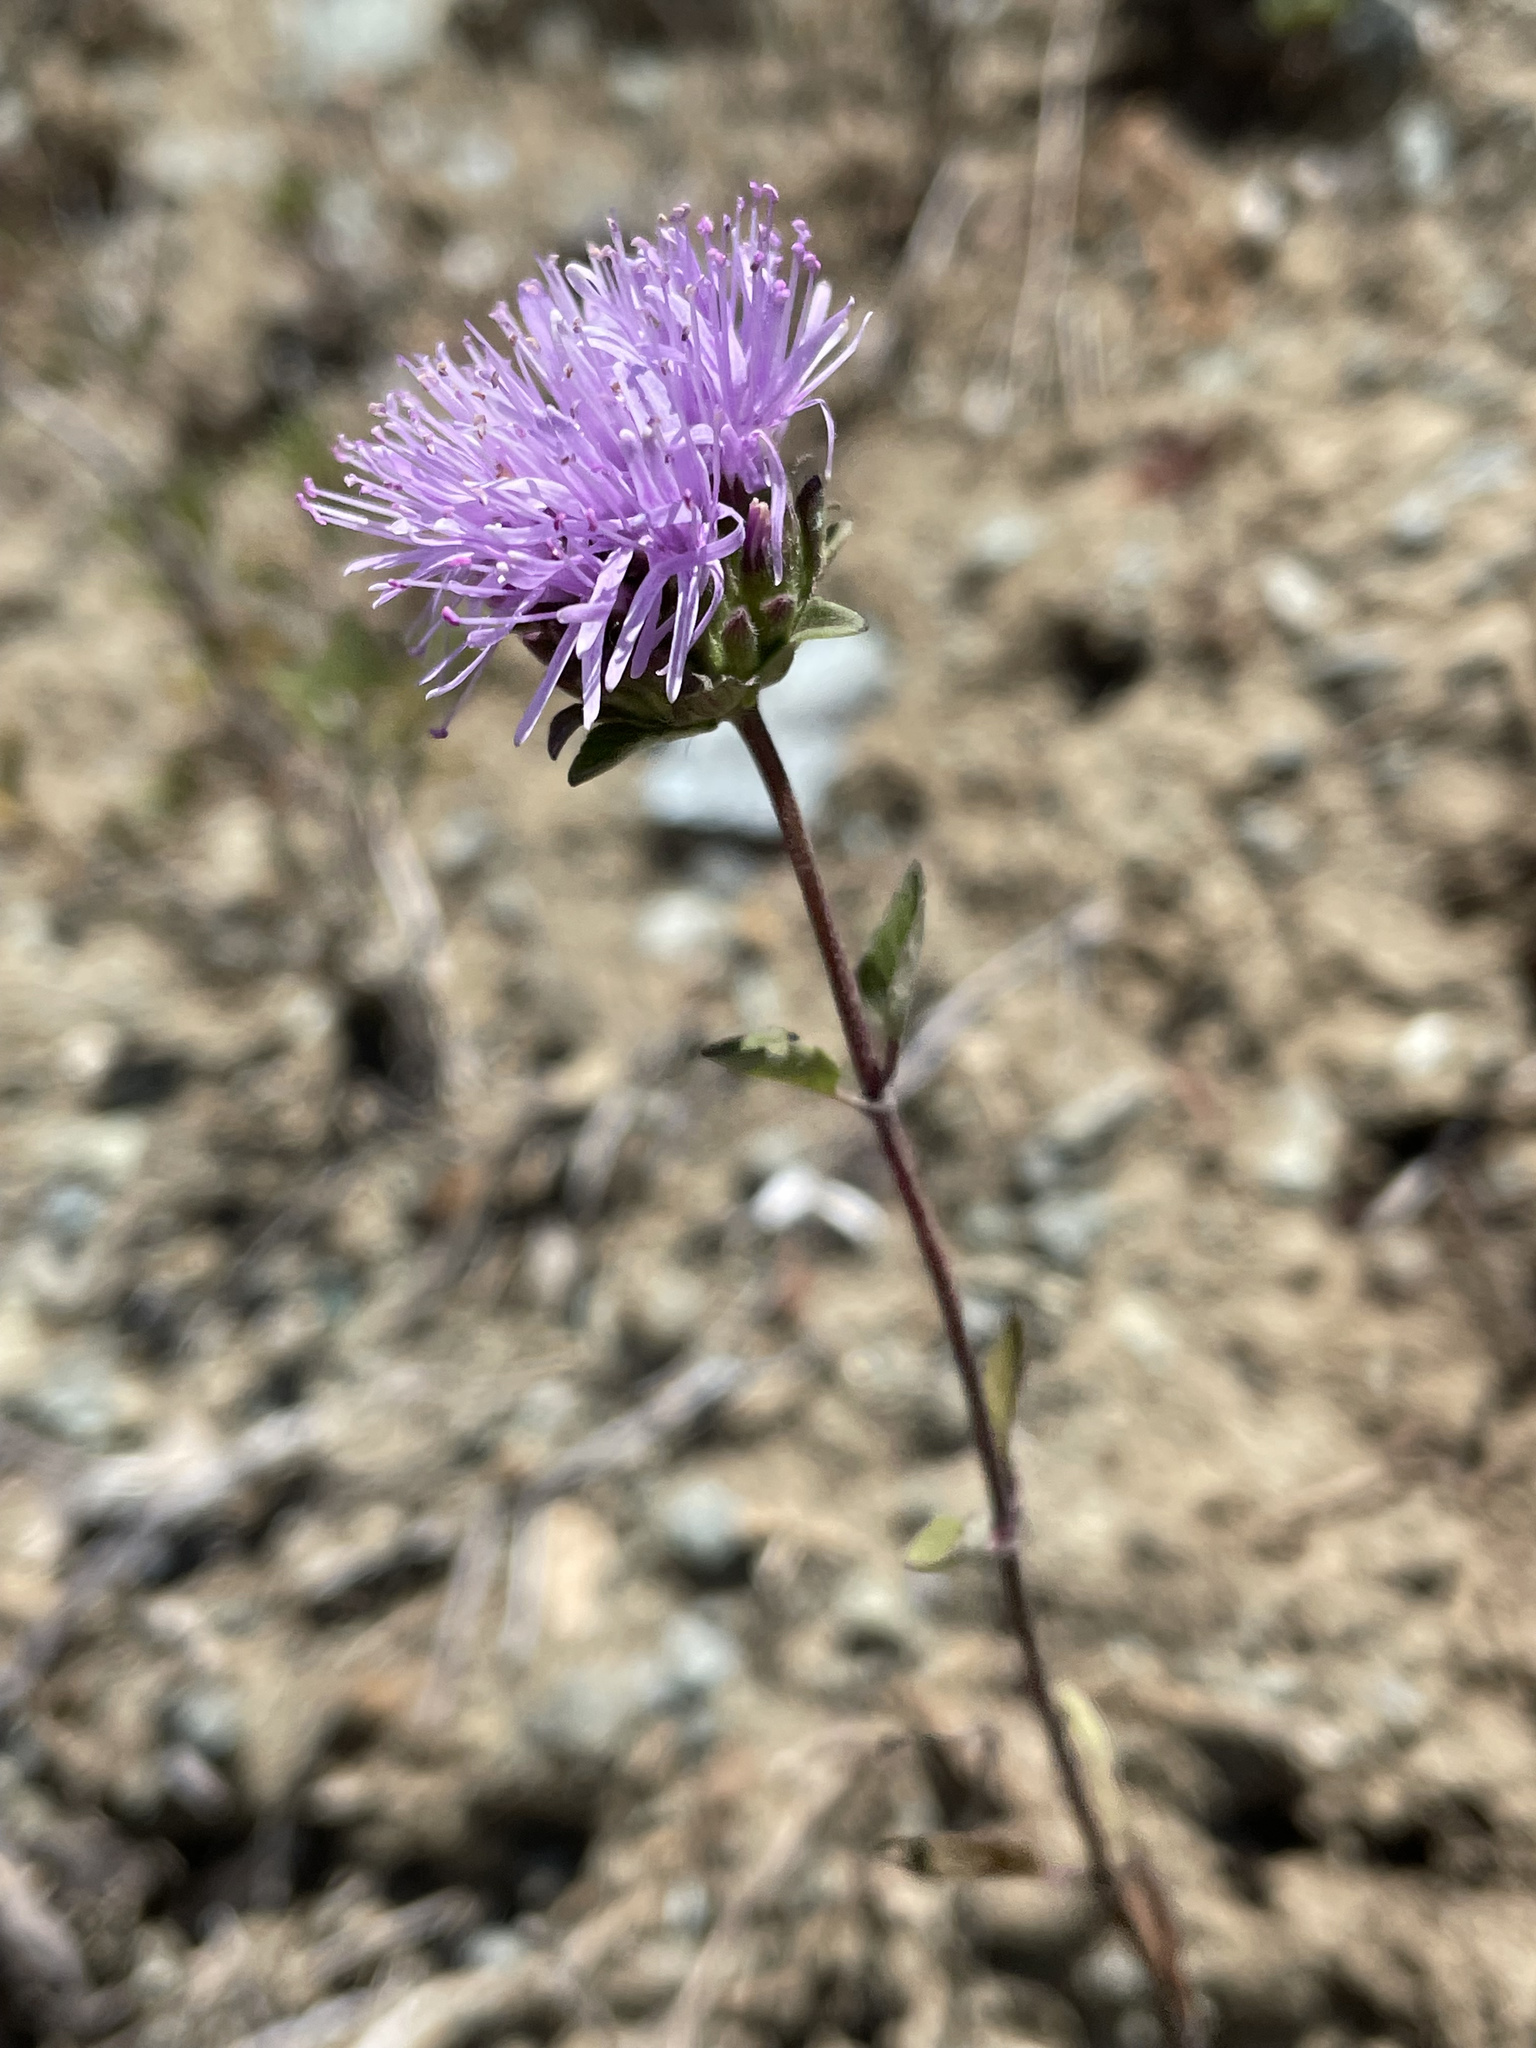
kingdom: Plantae
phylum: Tracheophyta
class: Magnoliopsida
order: Lamiales
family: Lamiaceae
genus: Monardella
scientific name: Monardella odoratissima
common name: Pacific monardella
